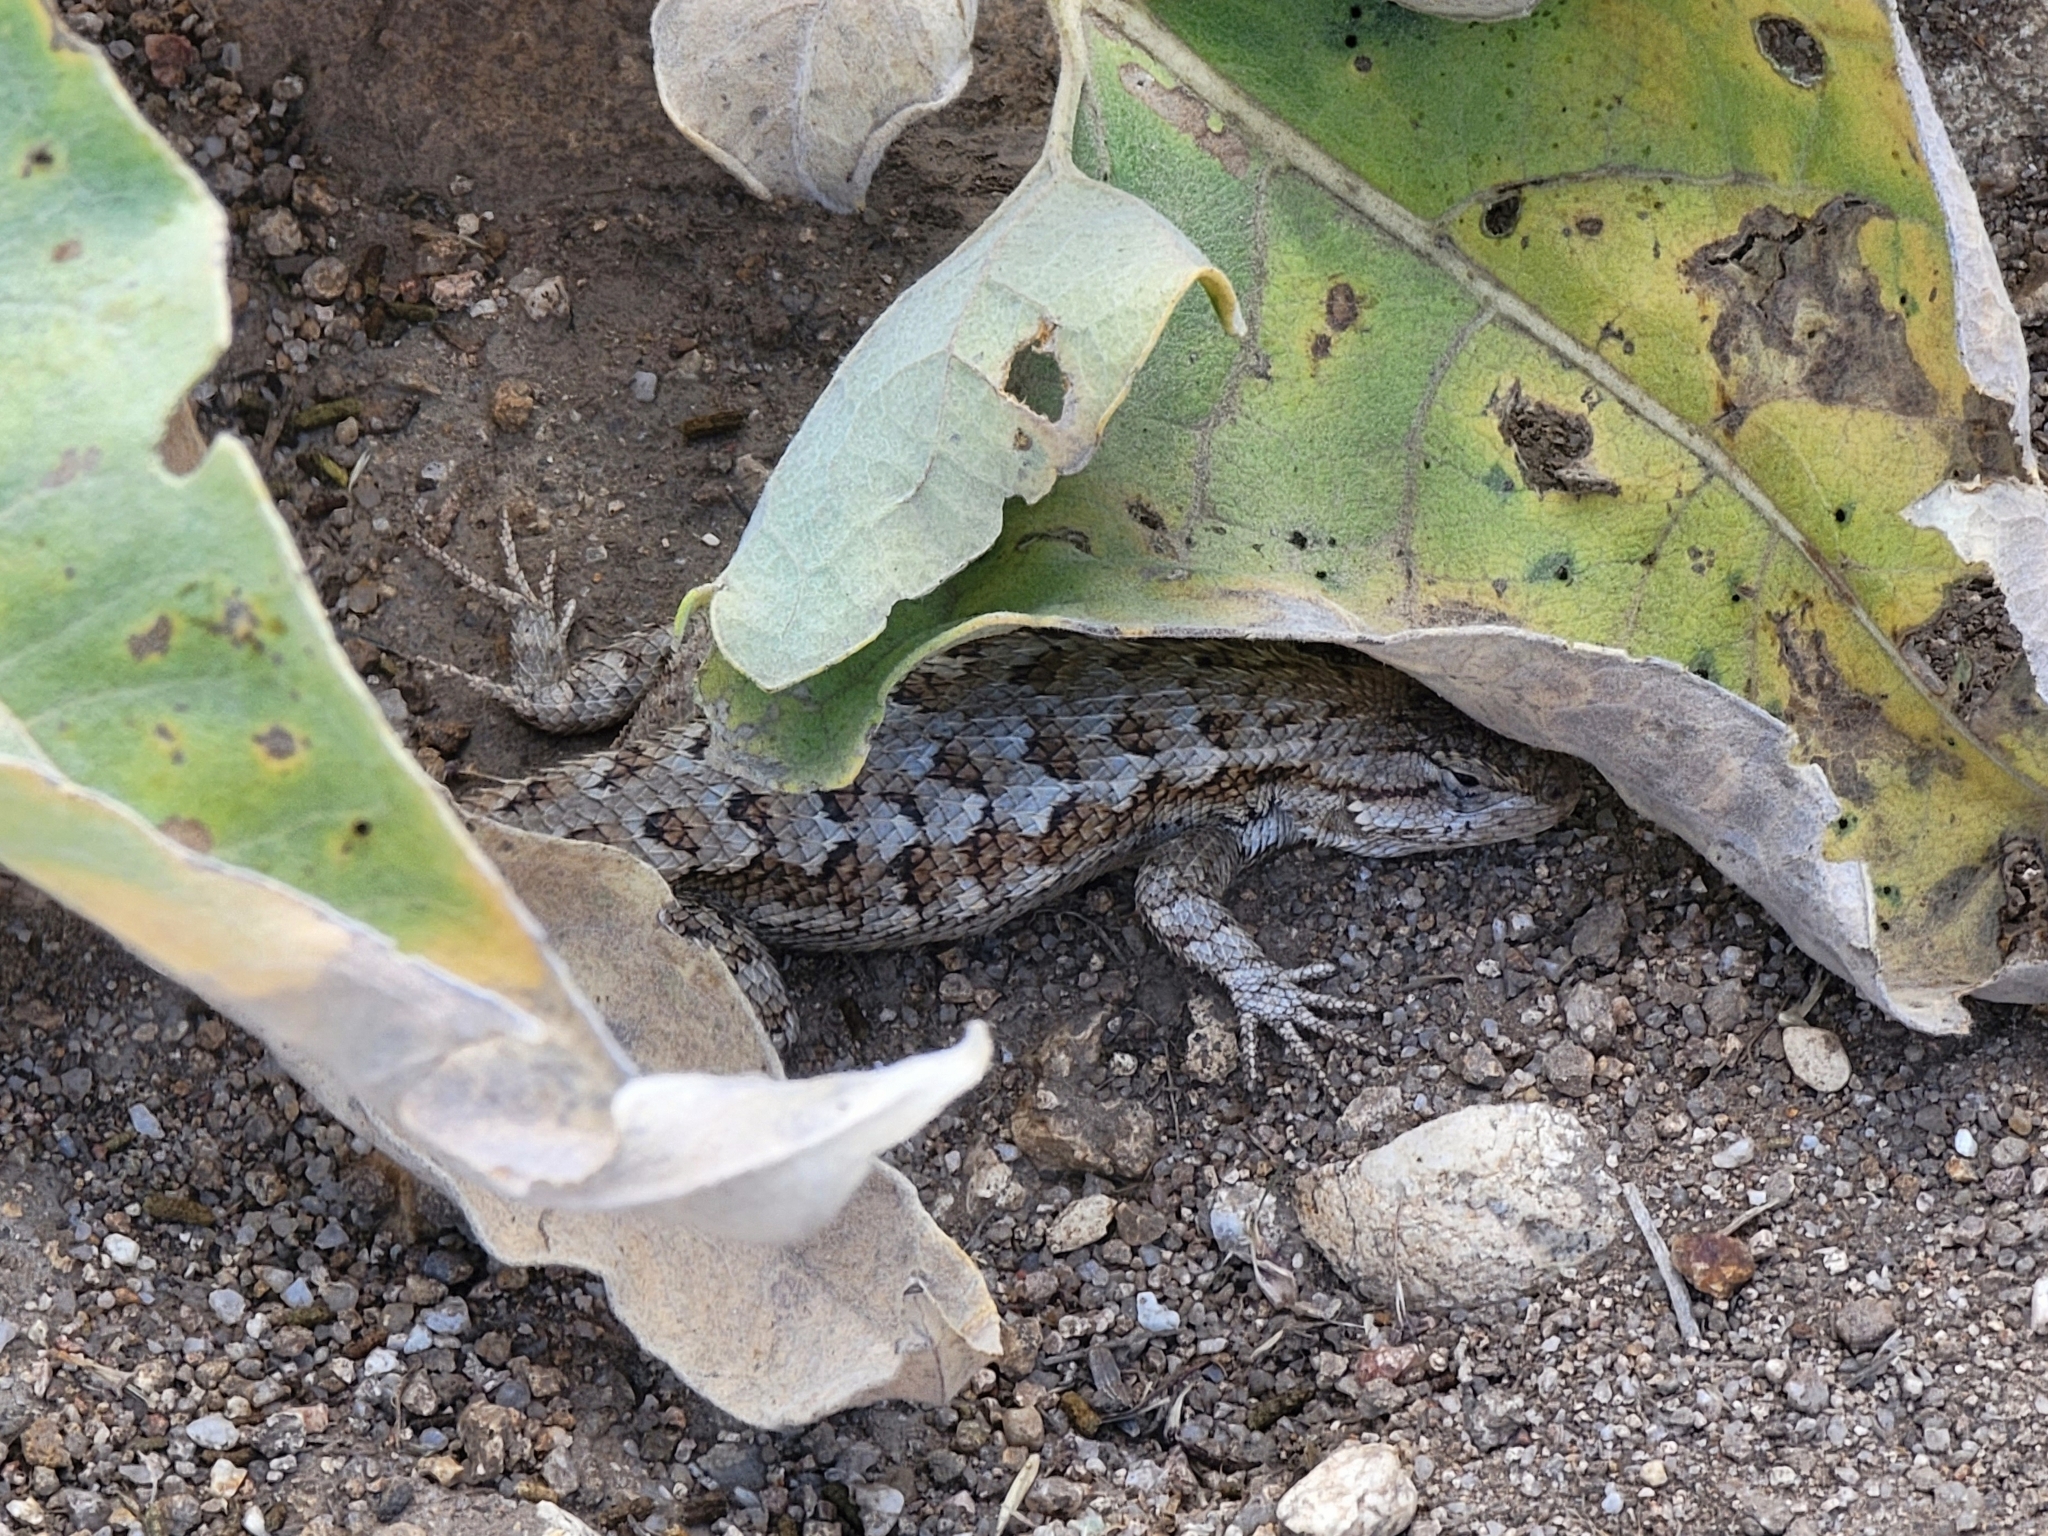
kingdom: Animalia
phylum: Chordata
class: Squamata
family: Phrynosomatidae
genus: Sceloporus
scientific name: Sceloporus occidentalis
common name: Western fence lizard
